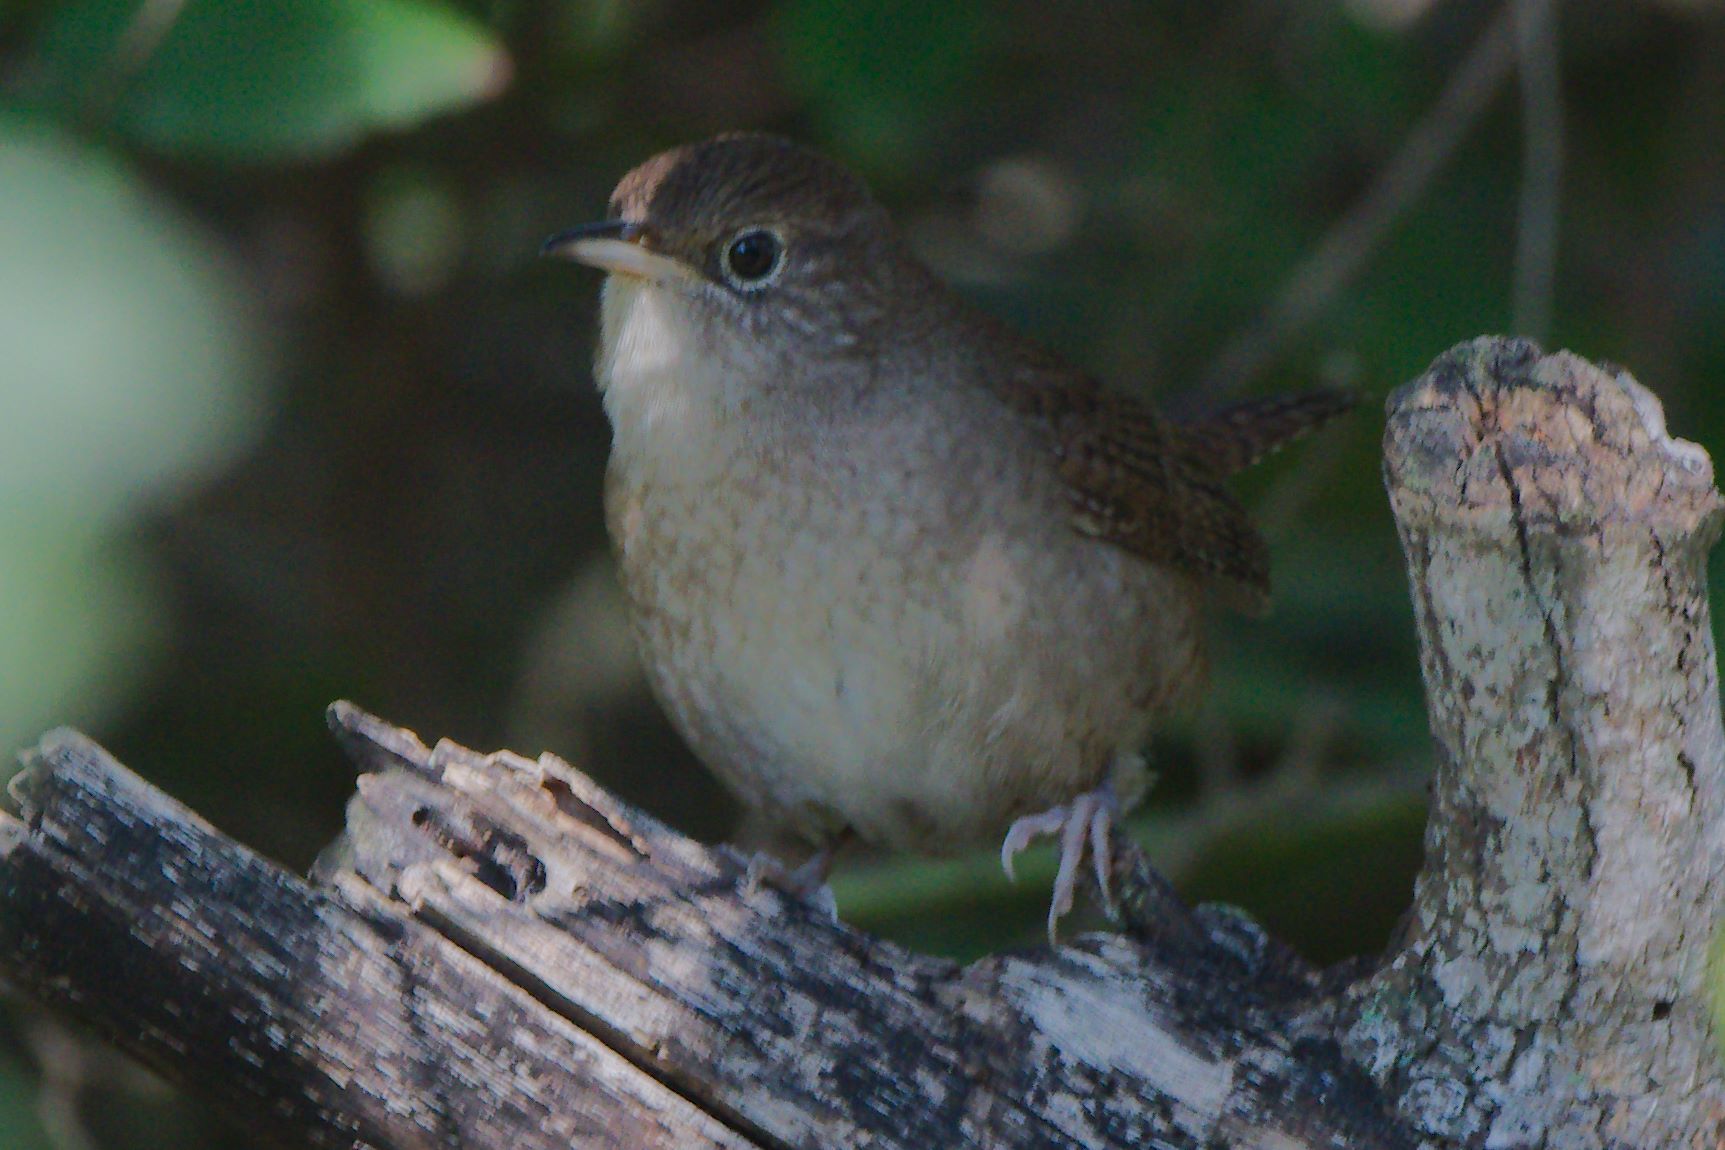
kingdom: Animalia
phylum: Chordata
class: Aves
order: Passeriformes
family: Troglodytidae
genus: Troglodytes
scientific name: Troglodytes aedon
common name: House wren
